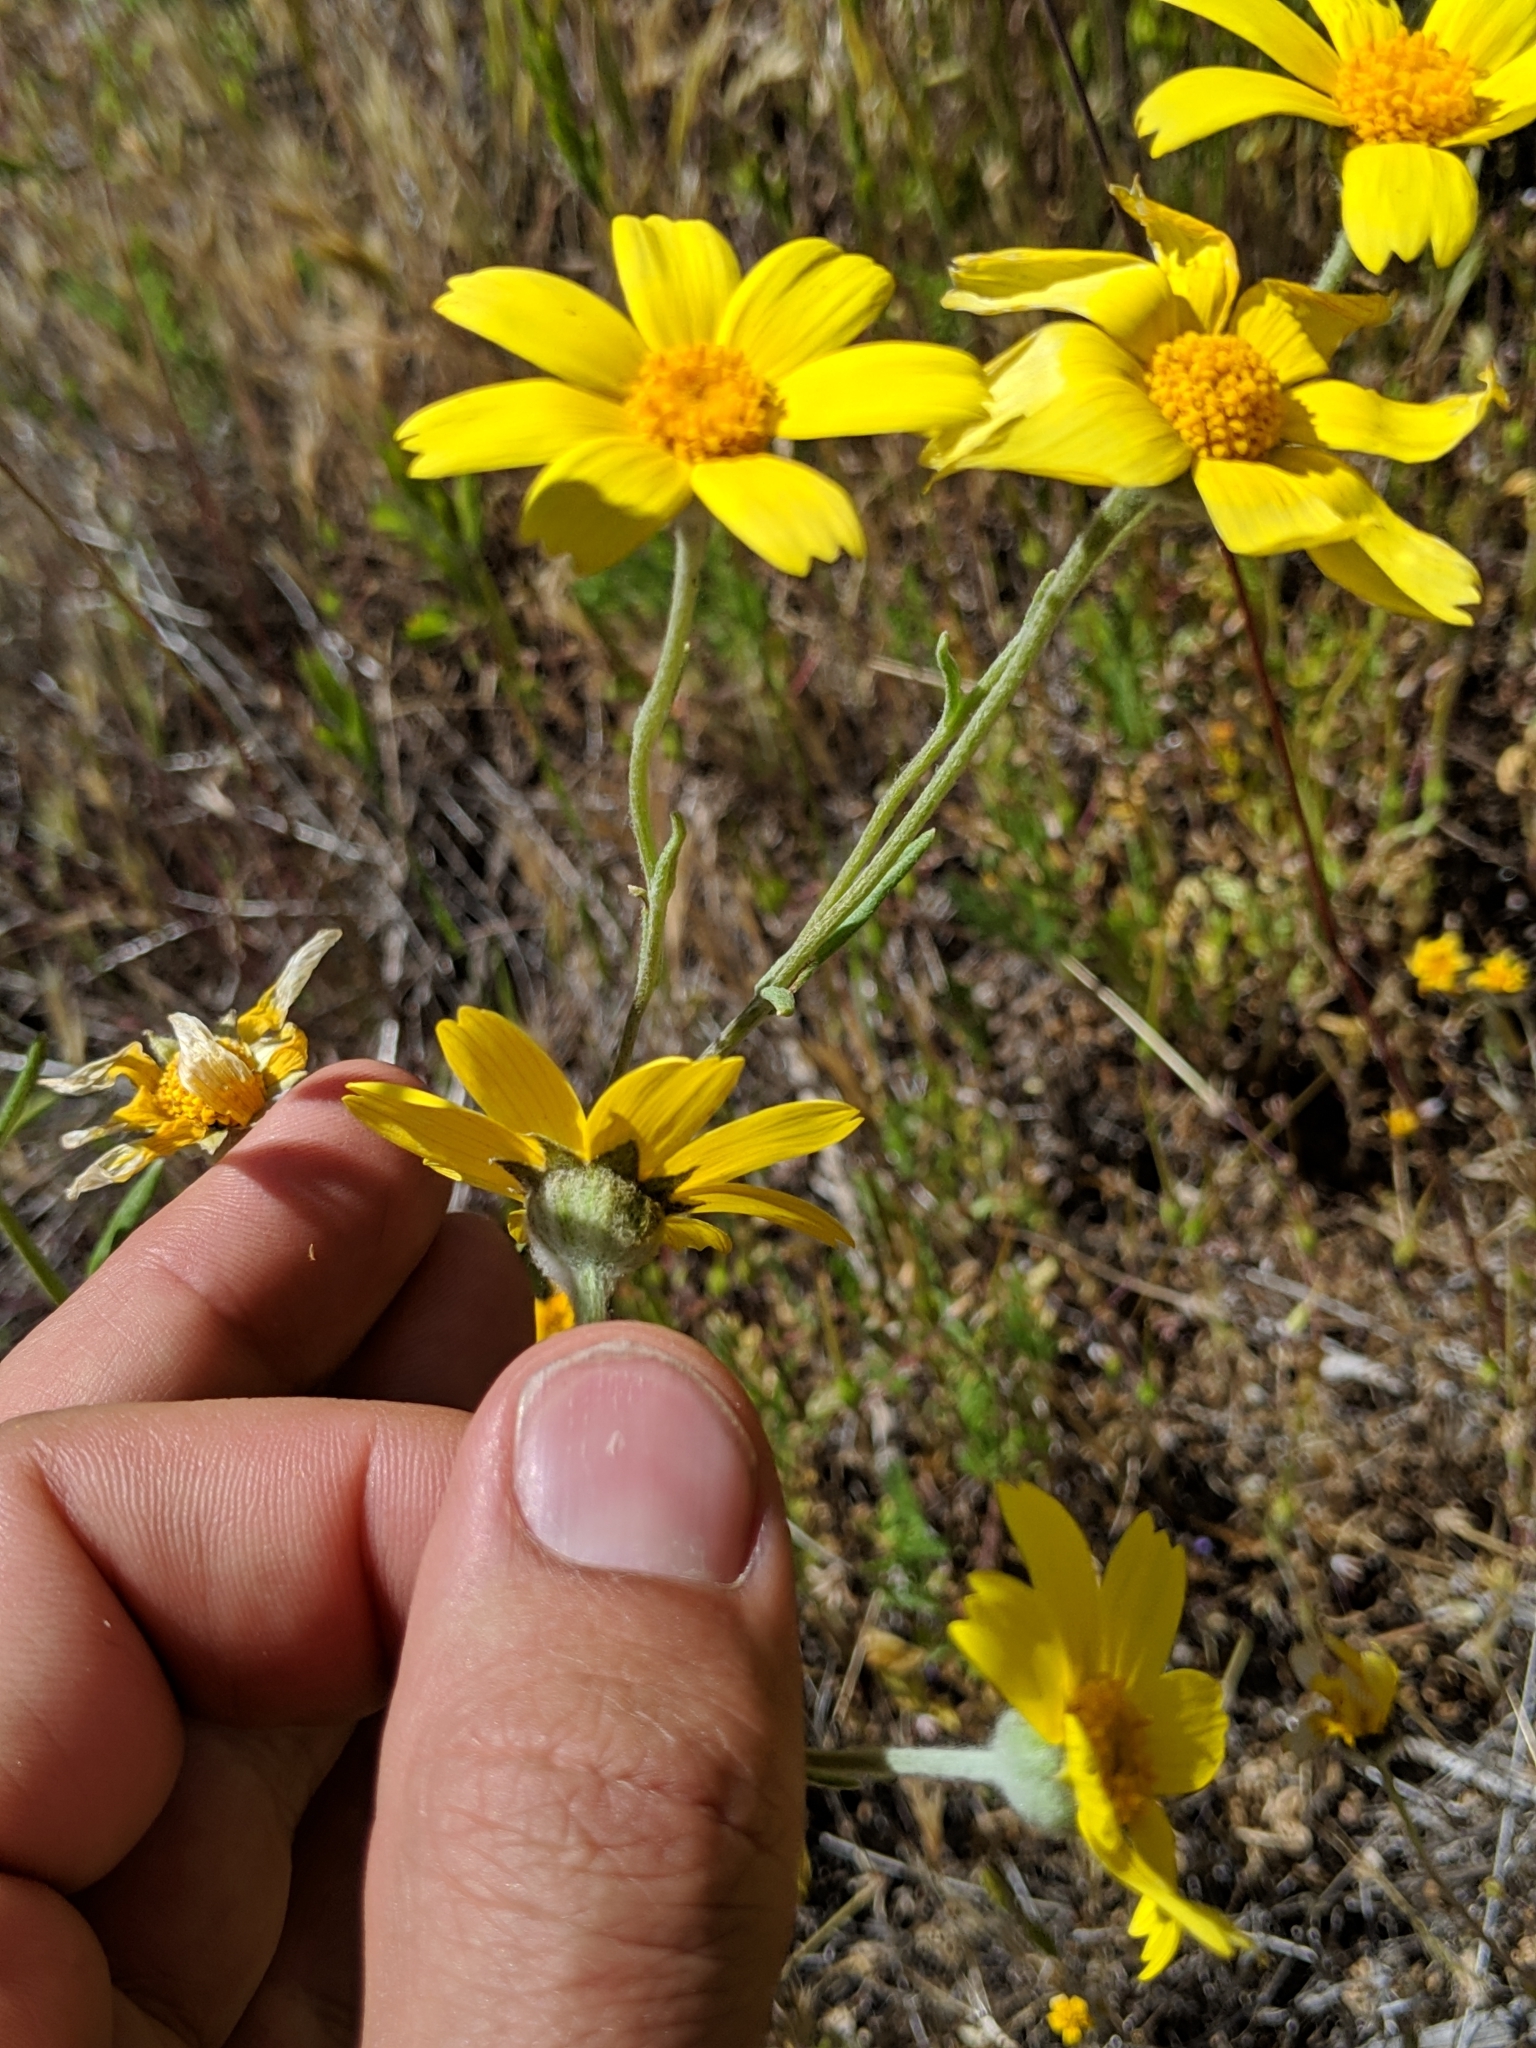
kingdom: Plantae
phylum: Tracheophyta
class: Magnoliopsida
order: Asterales
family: Asteraceae
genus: Monolopia
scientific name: Monolopia lanceolata
